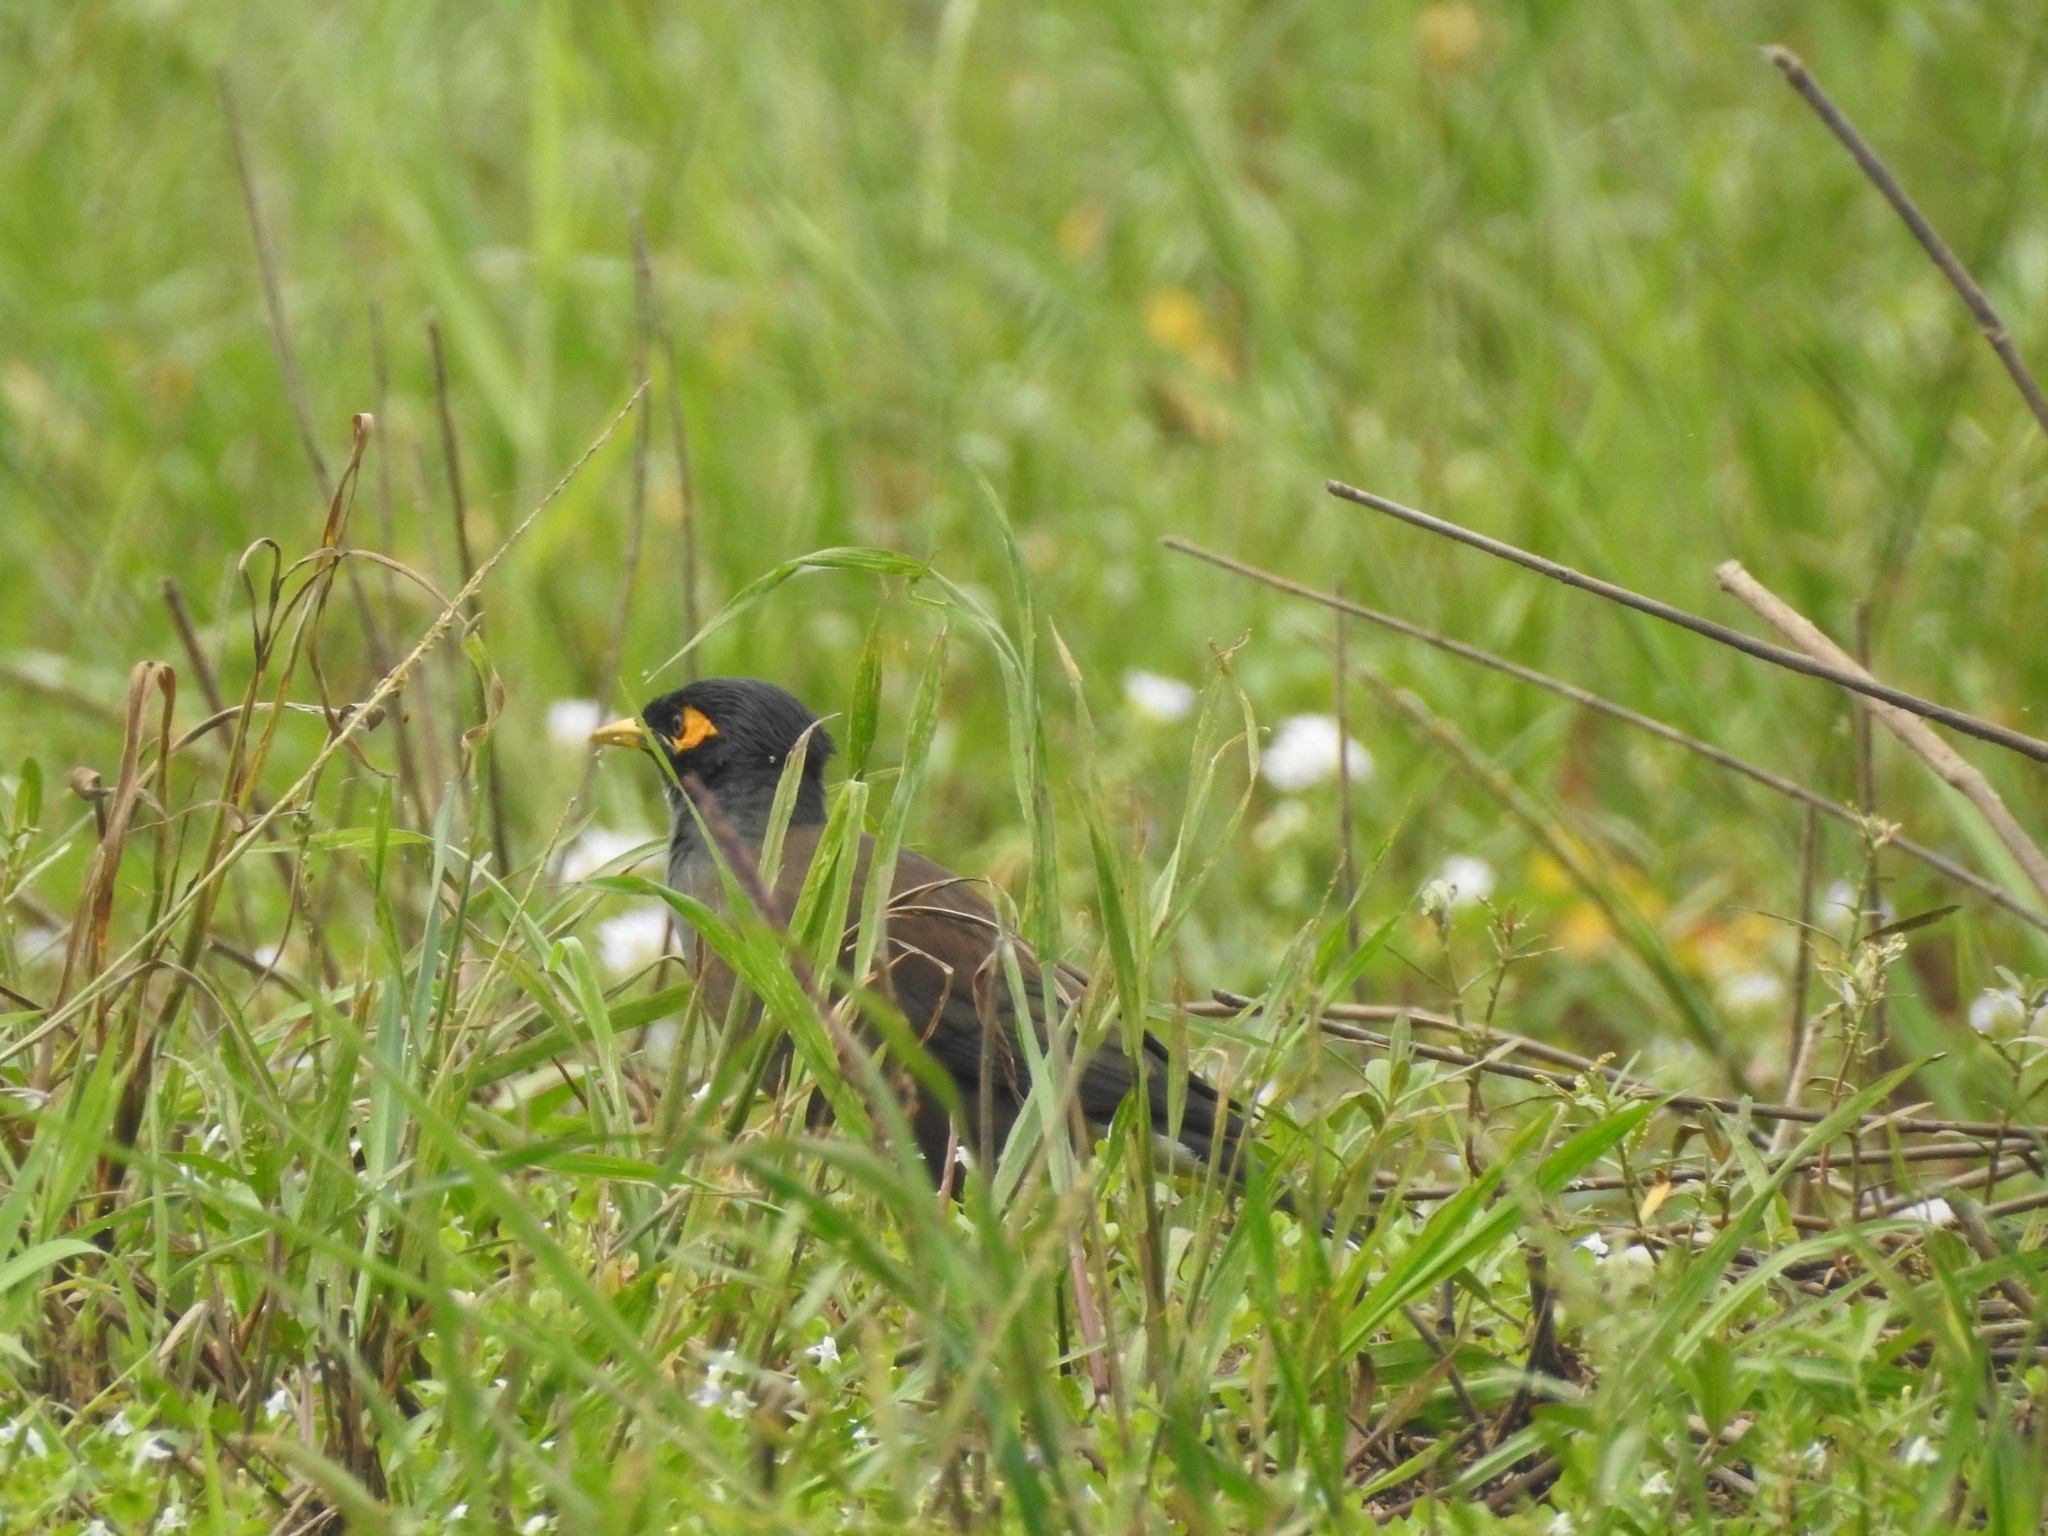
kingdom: Animalia
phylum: Chordata
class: Aves
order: Passeriformes
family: Sturnidae
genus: Acridotheres
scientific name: Acridotheres tristis
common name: Common myna
